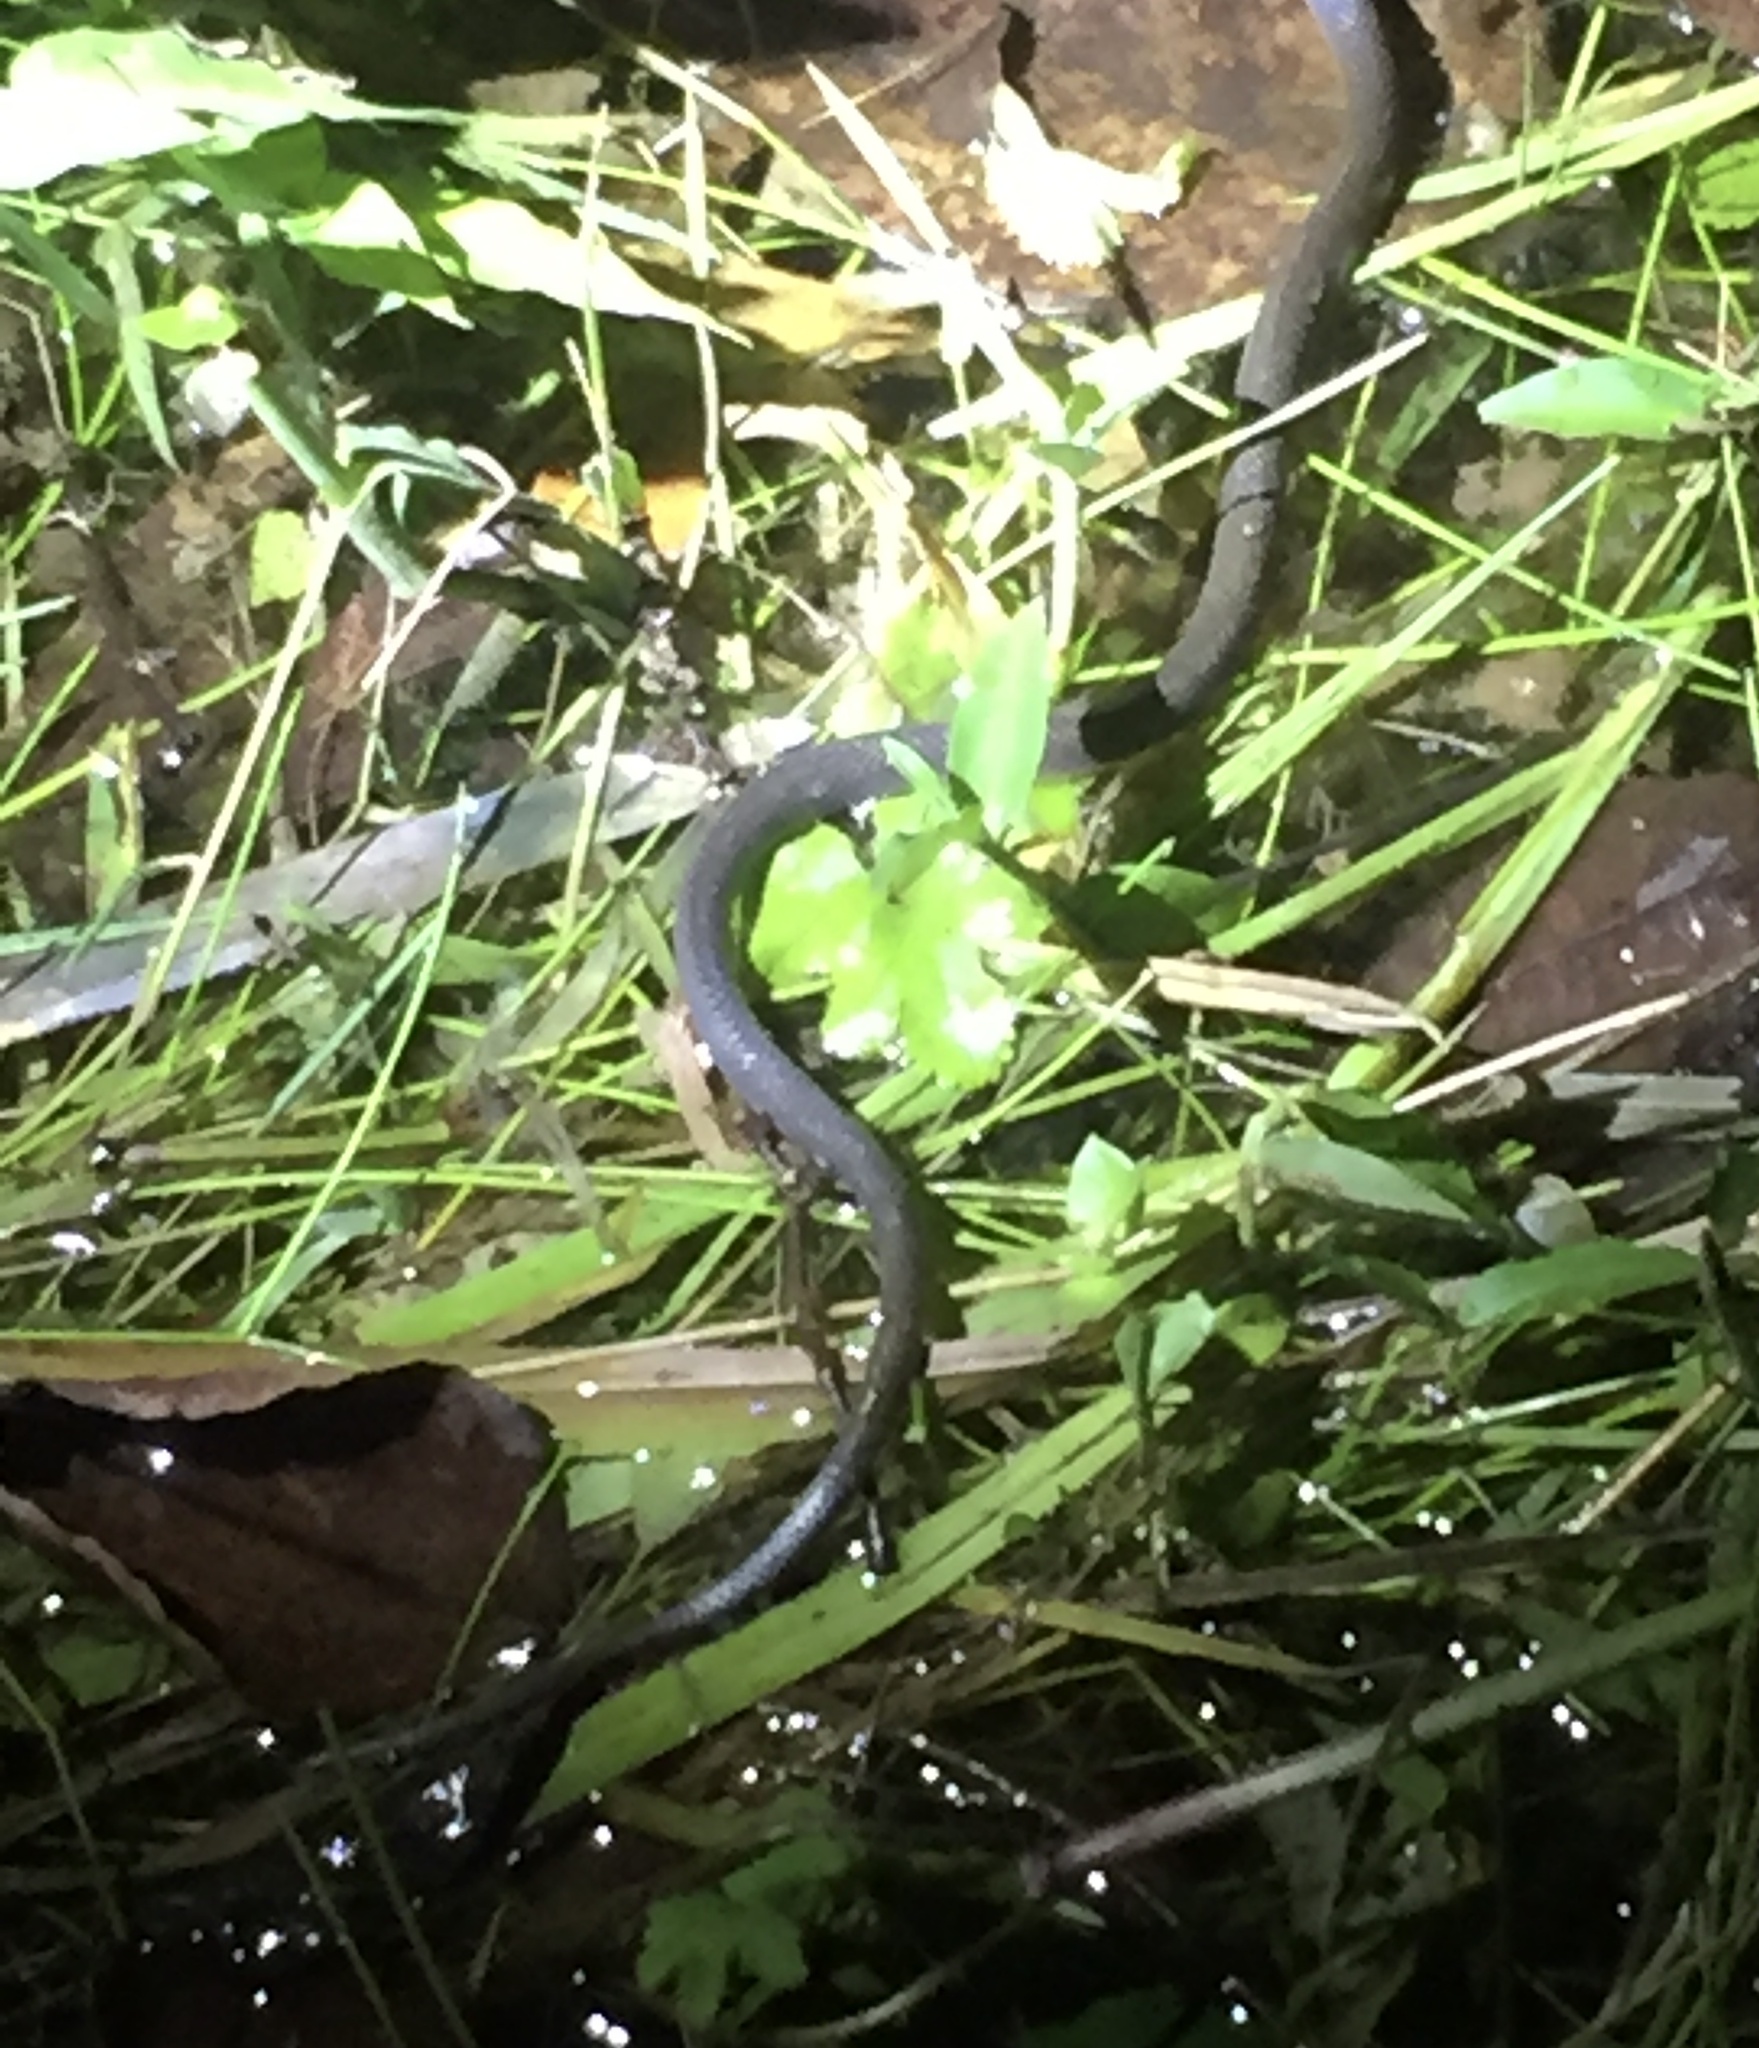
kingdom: Animalia
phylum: Chordata
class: Squamata
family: Colubridae
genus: Crotaphopeltis
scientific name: Crotaphopeltis hotamboeia
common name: Red-lipped snake
